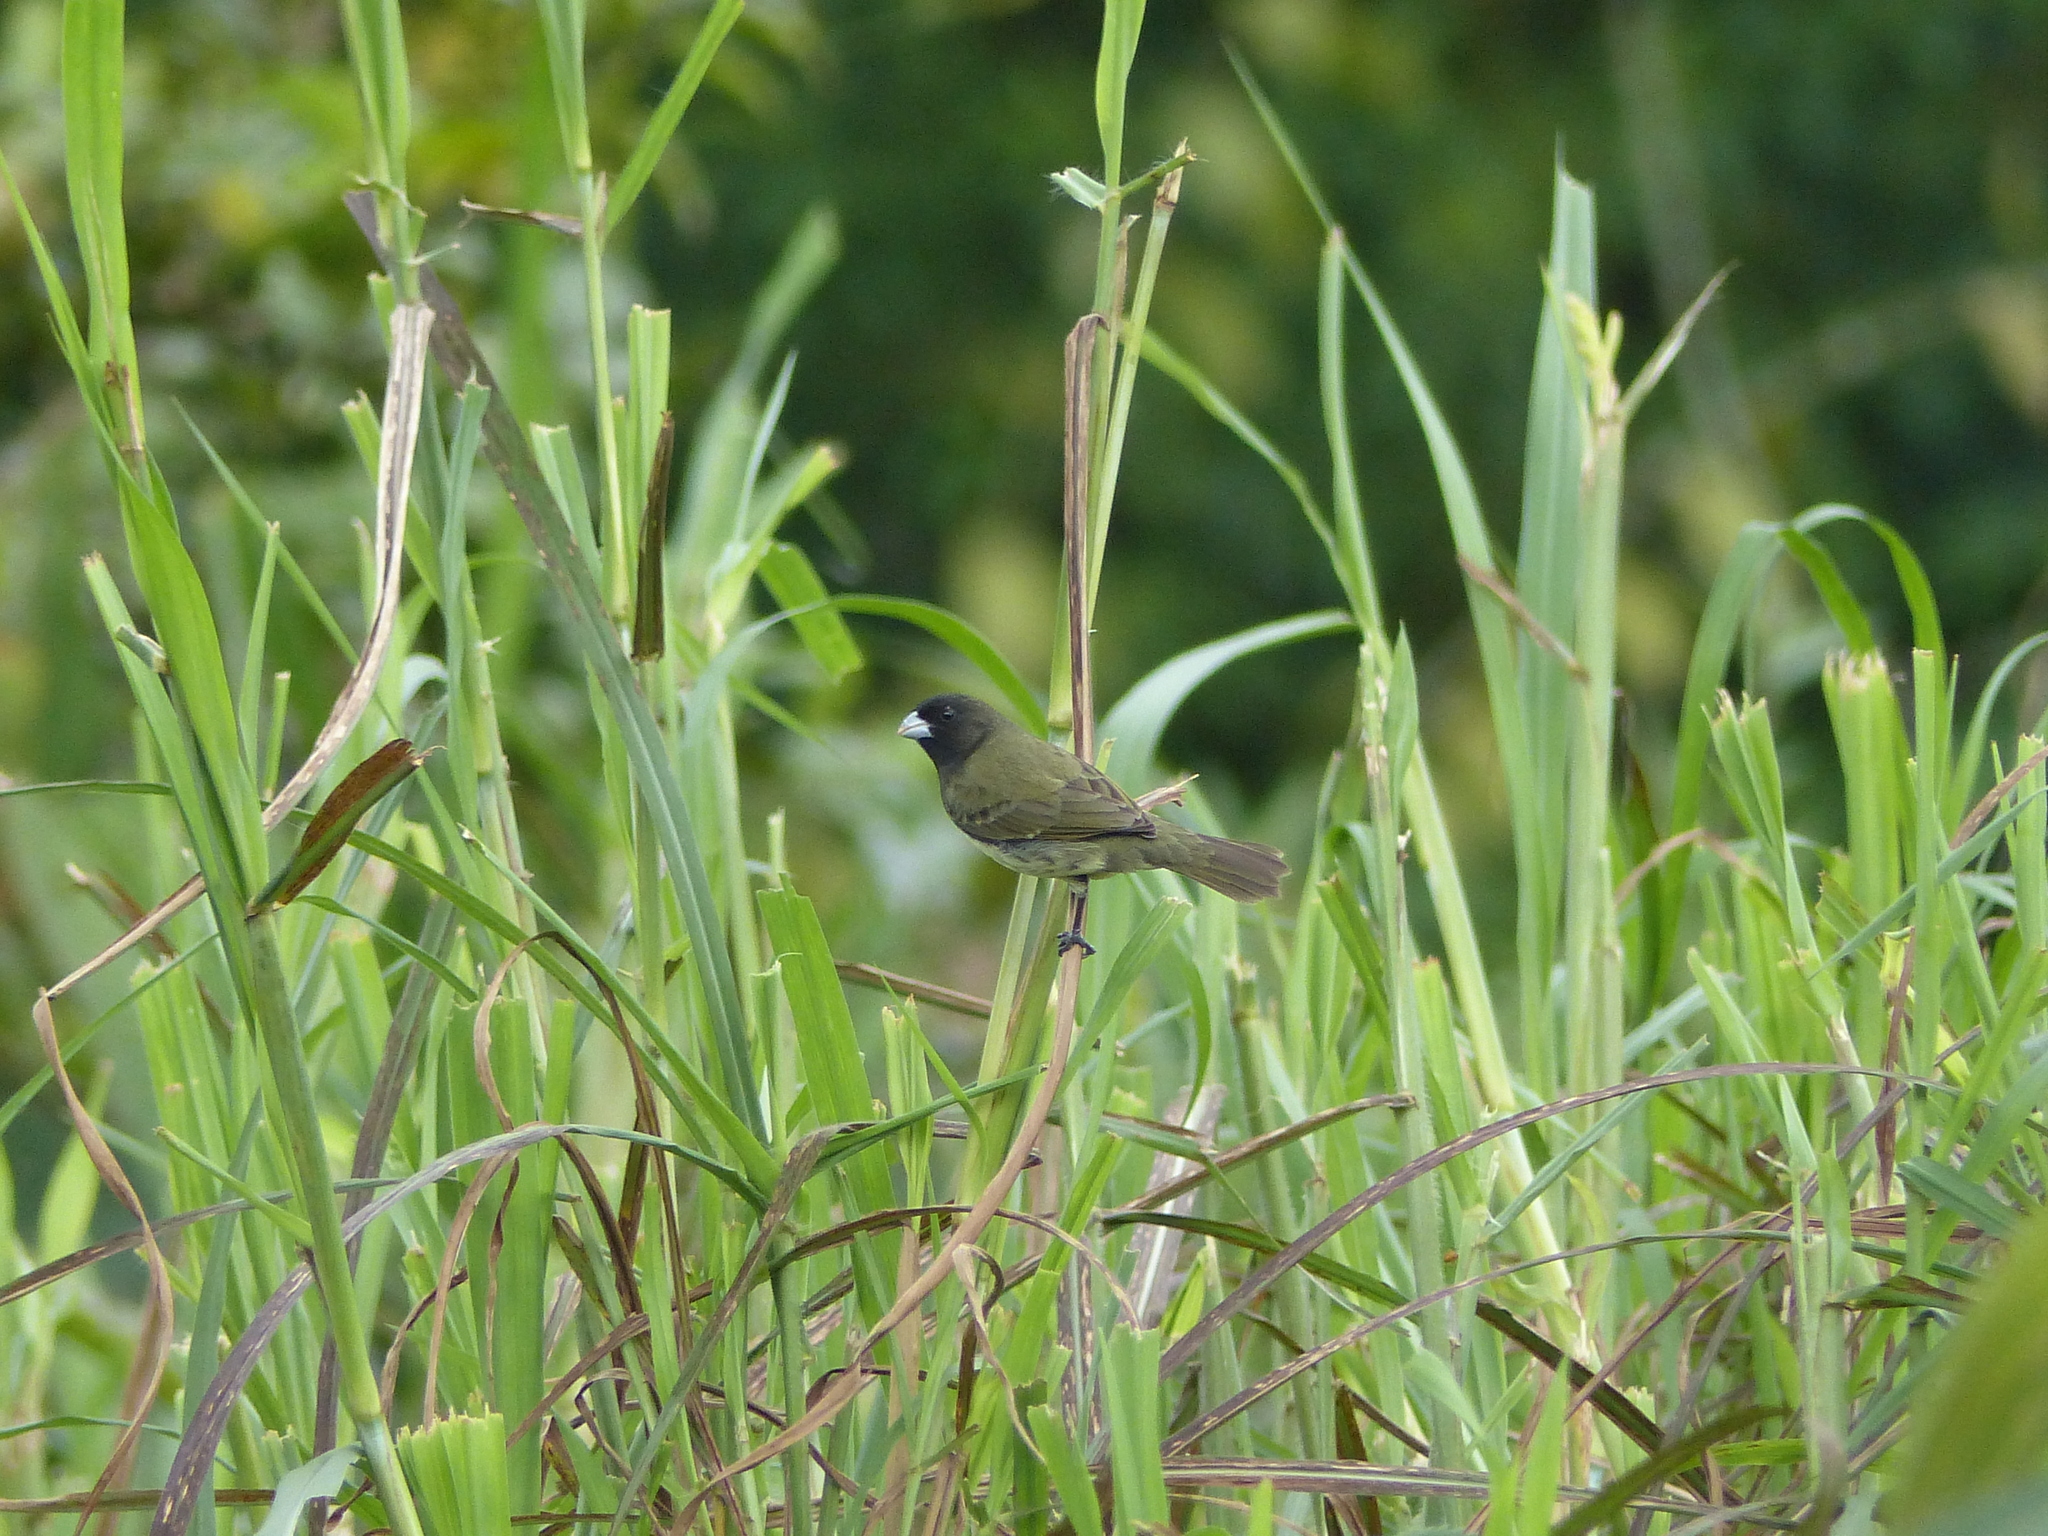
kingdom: Animalia
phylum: Chordata
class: Aves
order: Passeriformes
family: Thraupidae
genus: Sporophila
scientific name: Sporophila nigricollis
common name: Yellow-bellied seedeater
